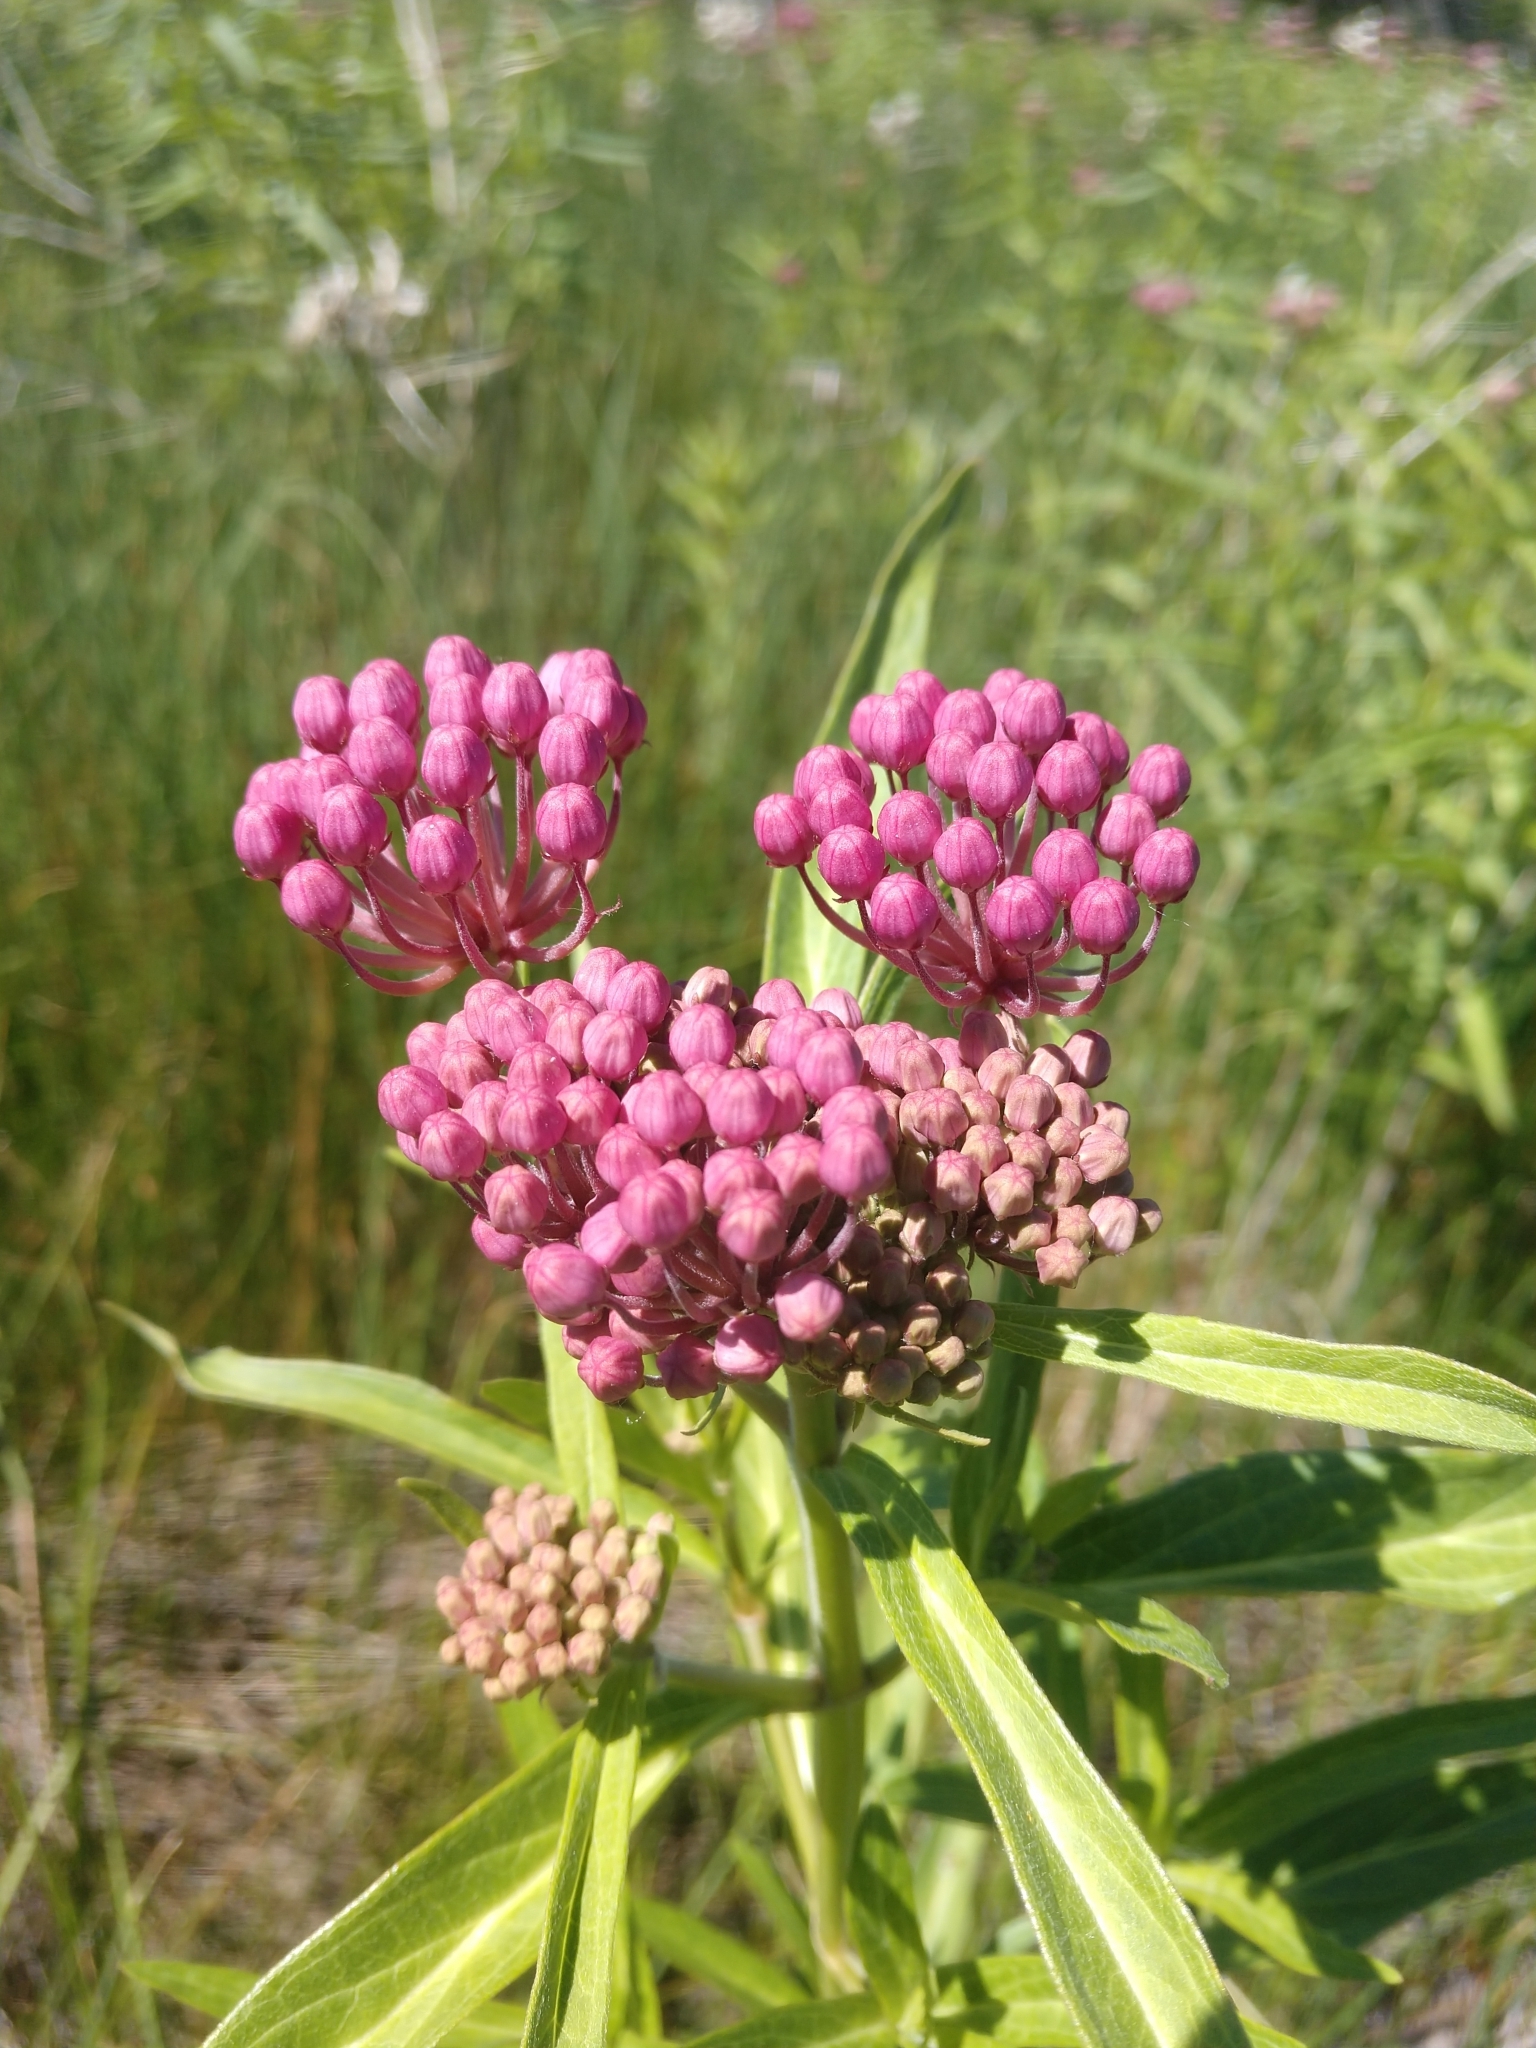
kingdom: Plantae
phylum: Tracheophyta
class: Magnoliopsida
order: Gentianales
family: Apocynaceae
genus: Asclepias
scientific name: Asclepias incarnata
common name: Swamp milkweed
